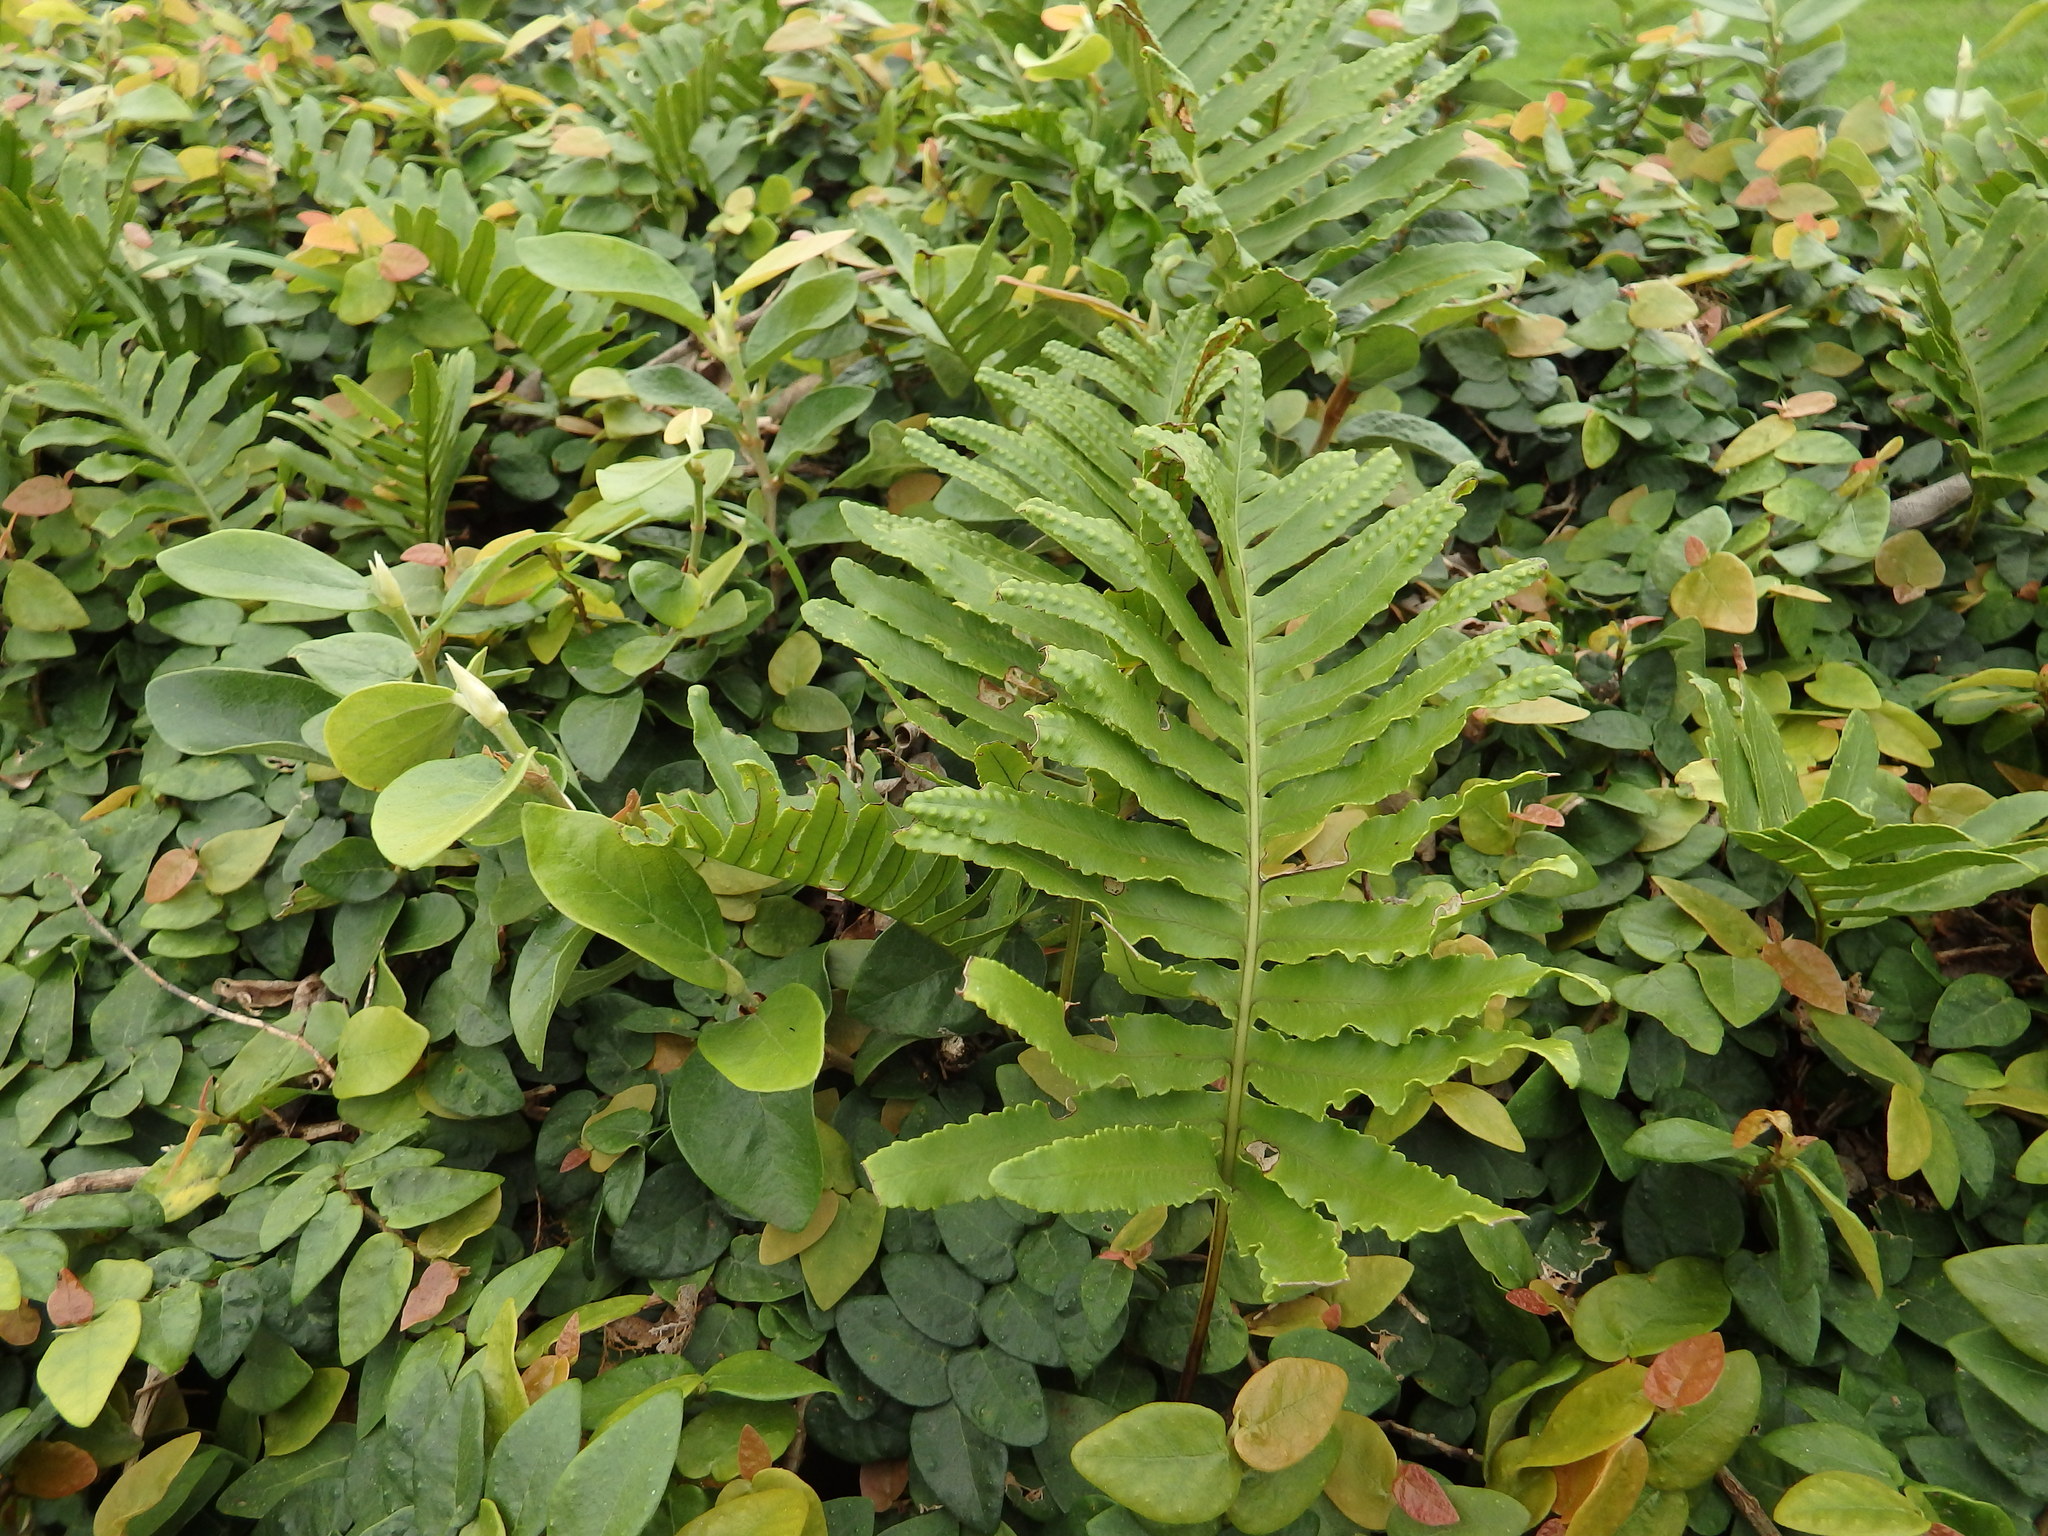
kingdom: Plantae
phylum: Tracheophyta
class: Polypodiopsida
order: Polypodiales
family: Polypodiaceae
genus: Polypodium
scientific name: Polypodium macaronesicum
